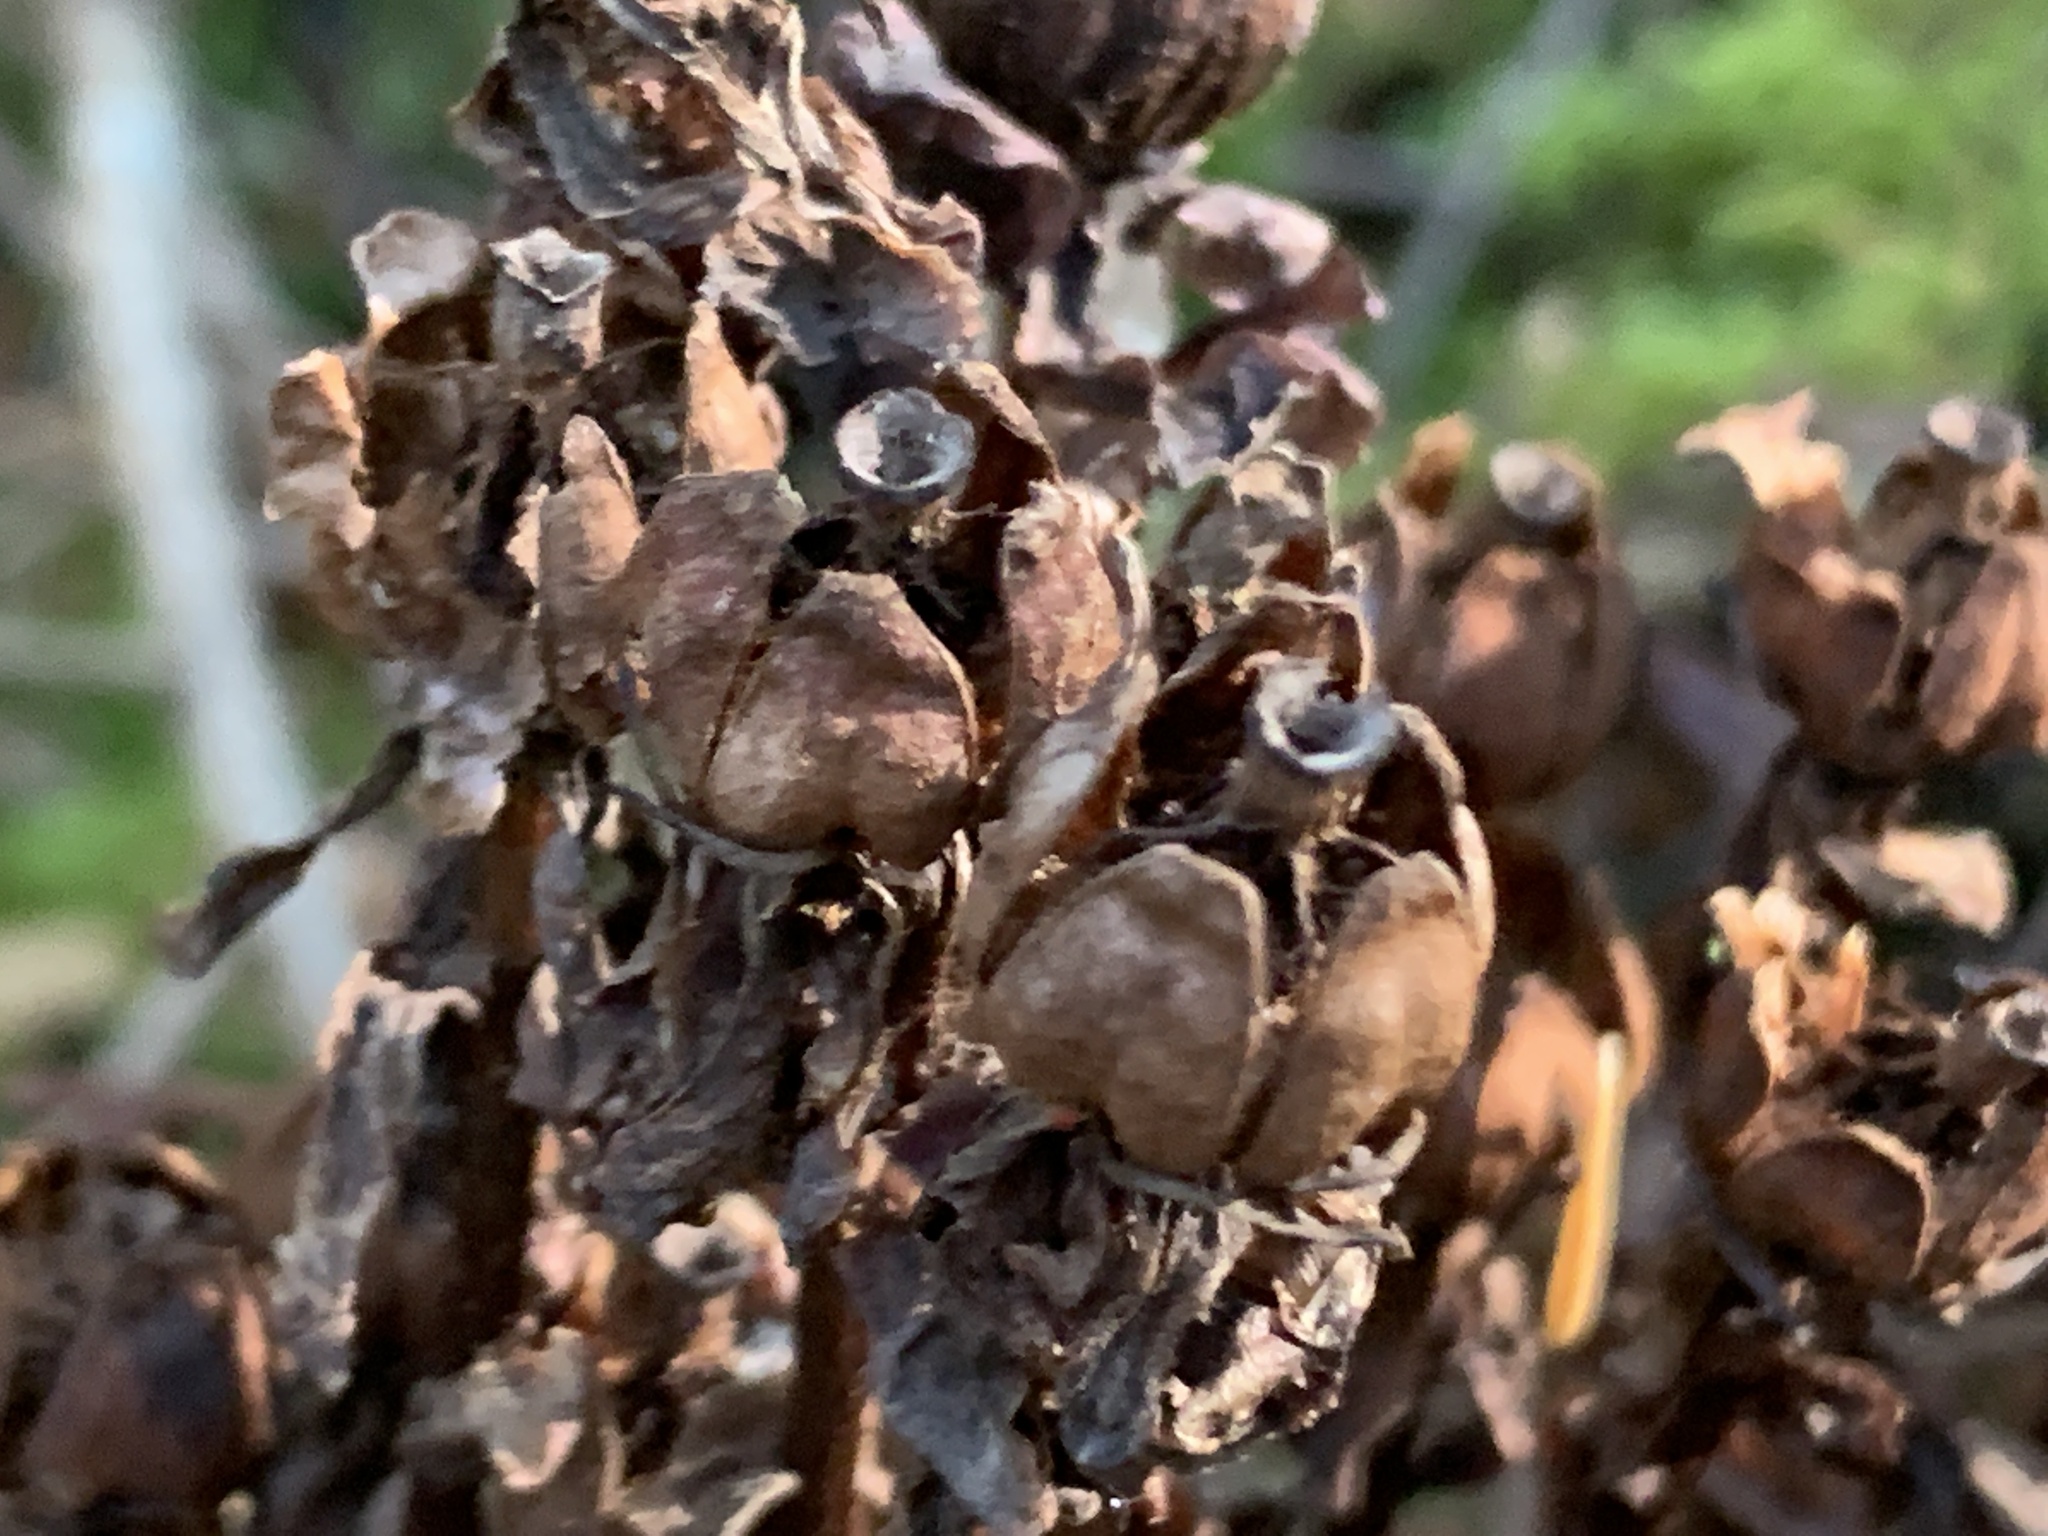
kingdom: Plantae
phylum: Tracheophyta
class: Magnoliopsida
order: Ericales
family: Ericaceae
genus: Monotropa
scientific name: Monotropa uniflora
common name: Convulsion root
